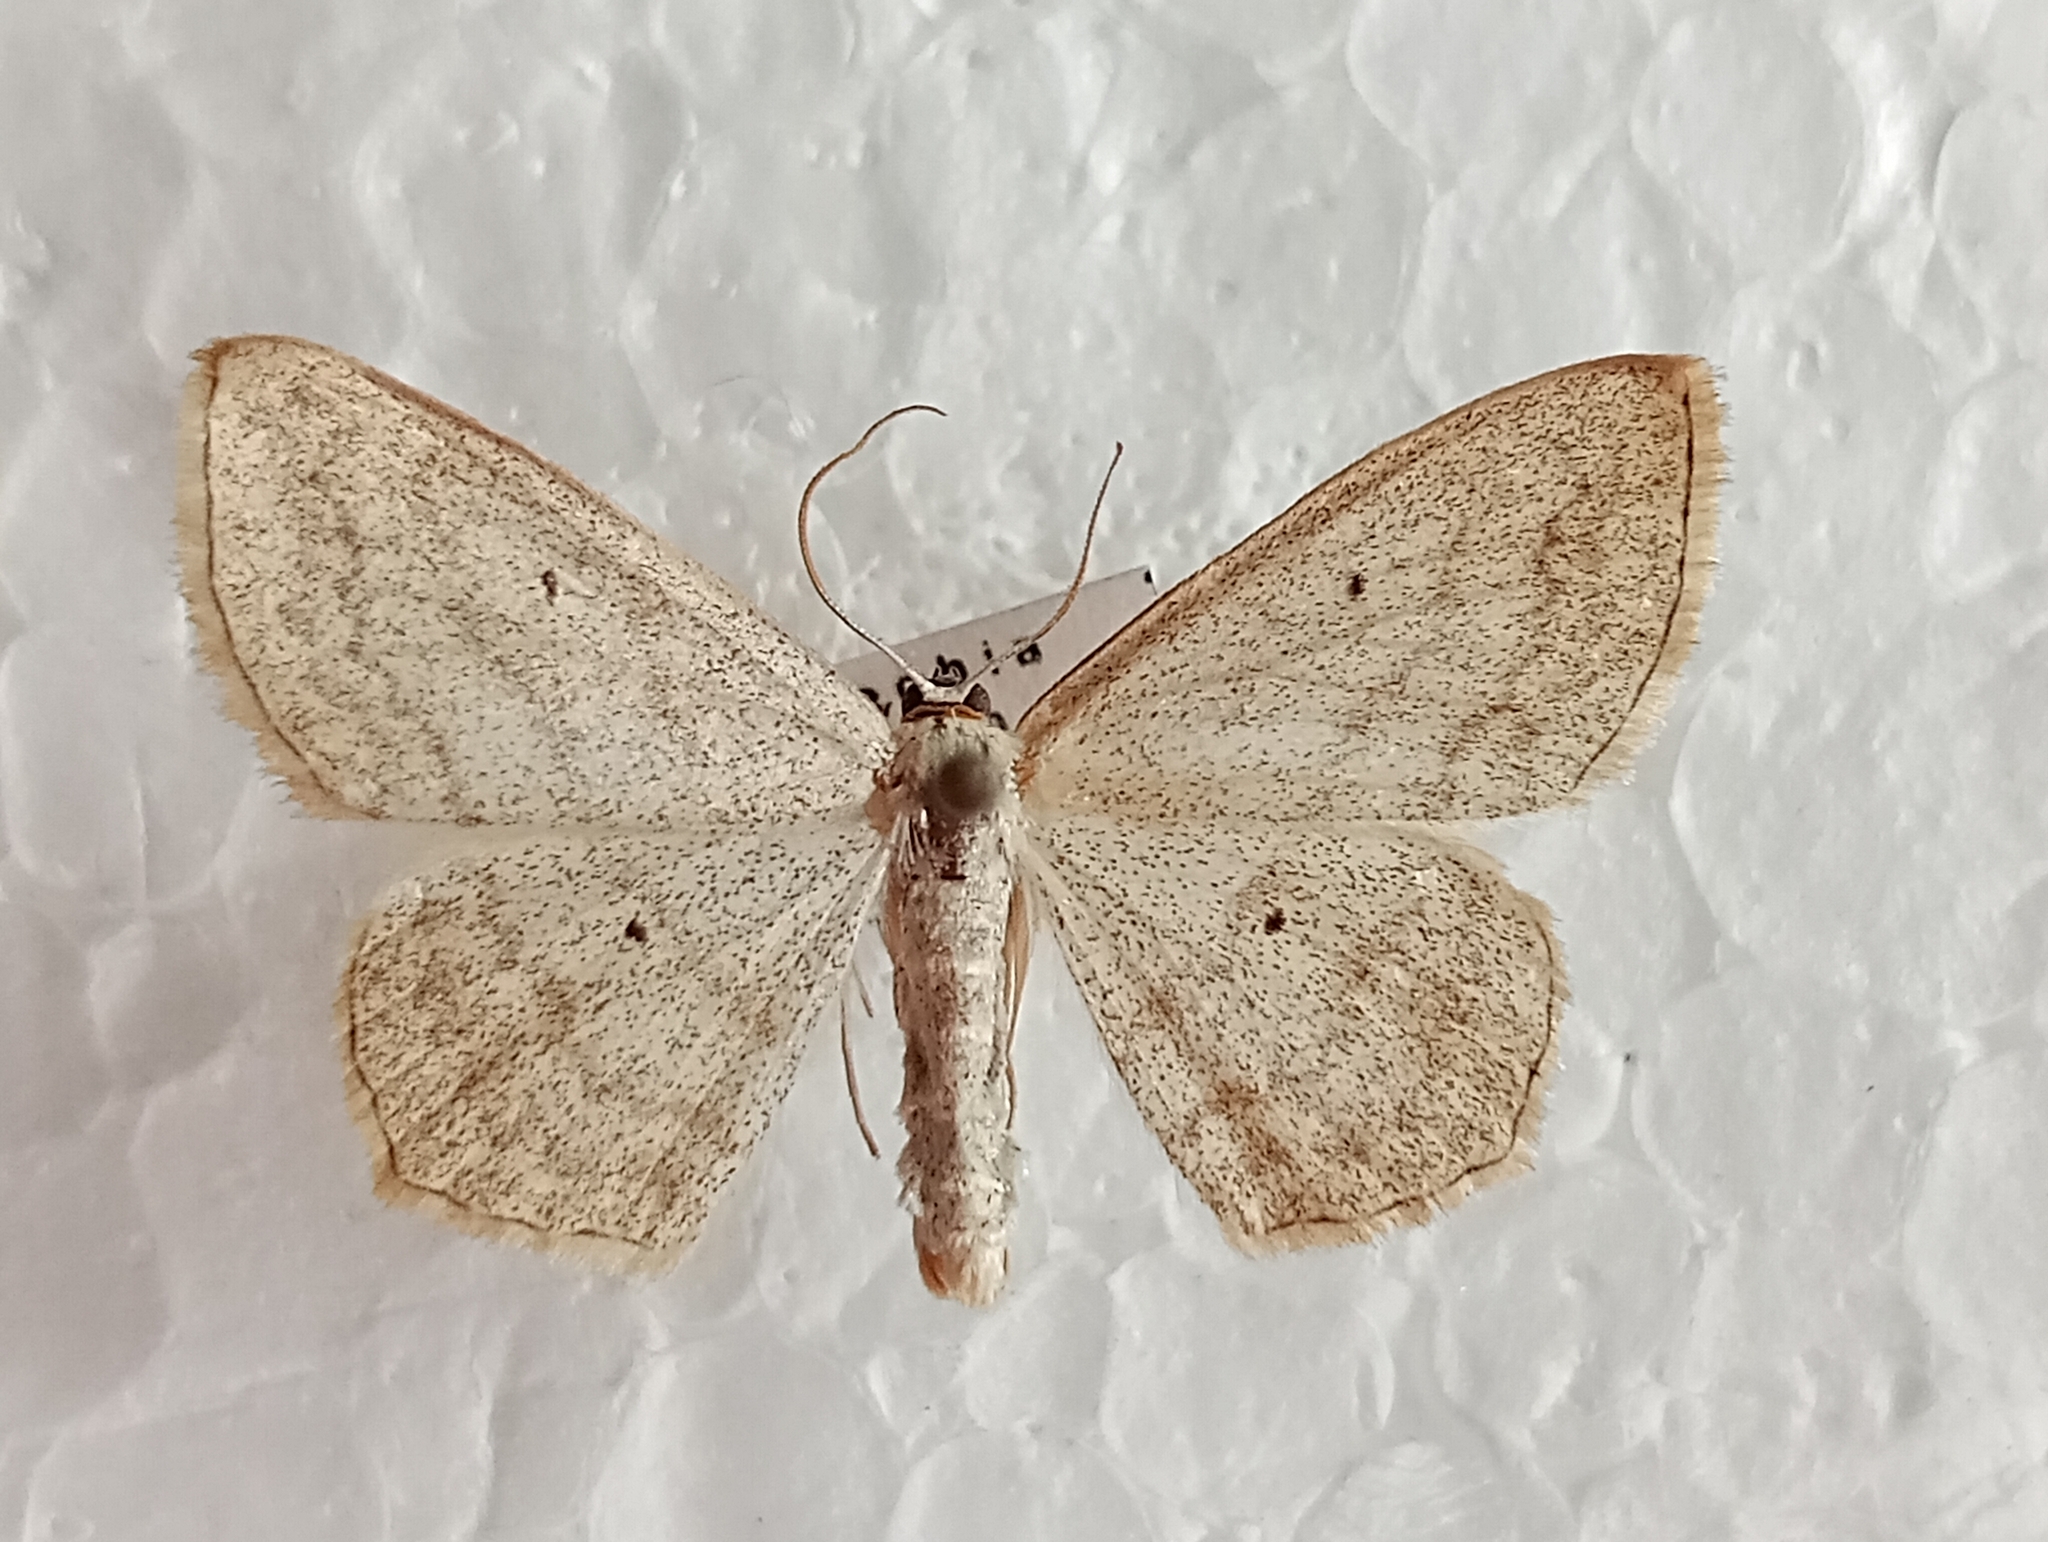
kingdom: Animalia
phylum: Arthropoda
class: Insecta
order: Lepidoptera
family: Geometridae
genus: Scopula
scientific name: Scopula nigropunctata
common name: Sub-angled wave
